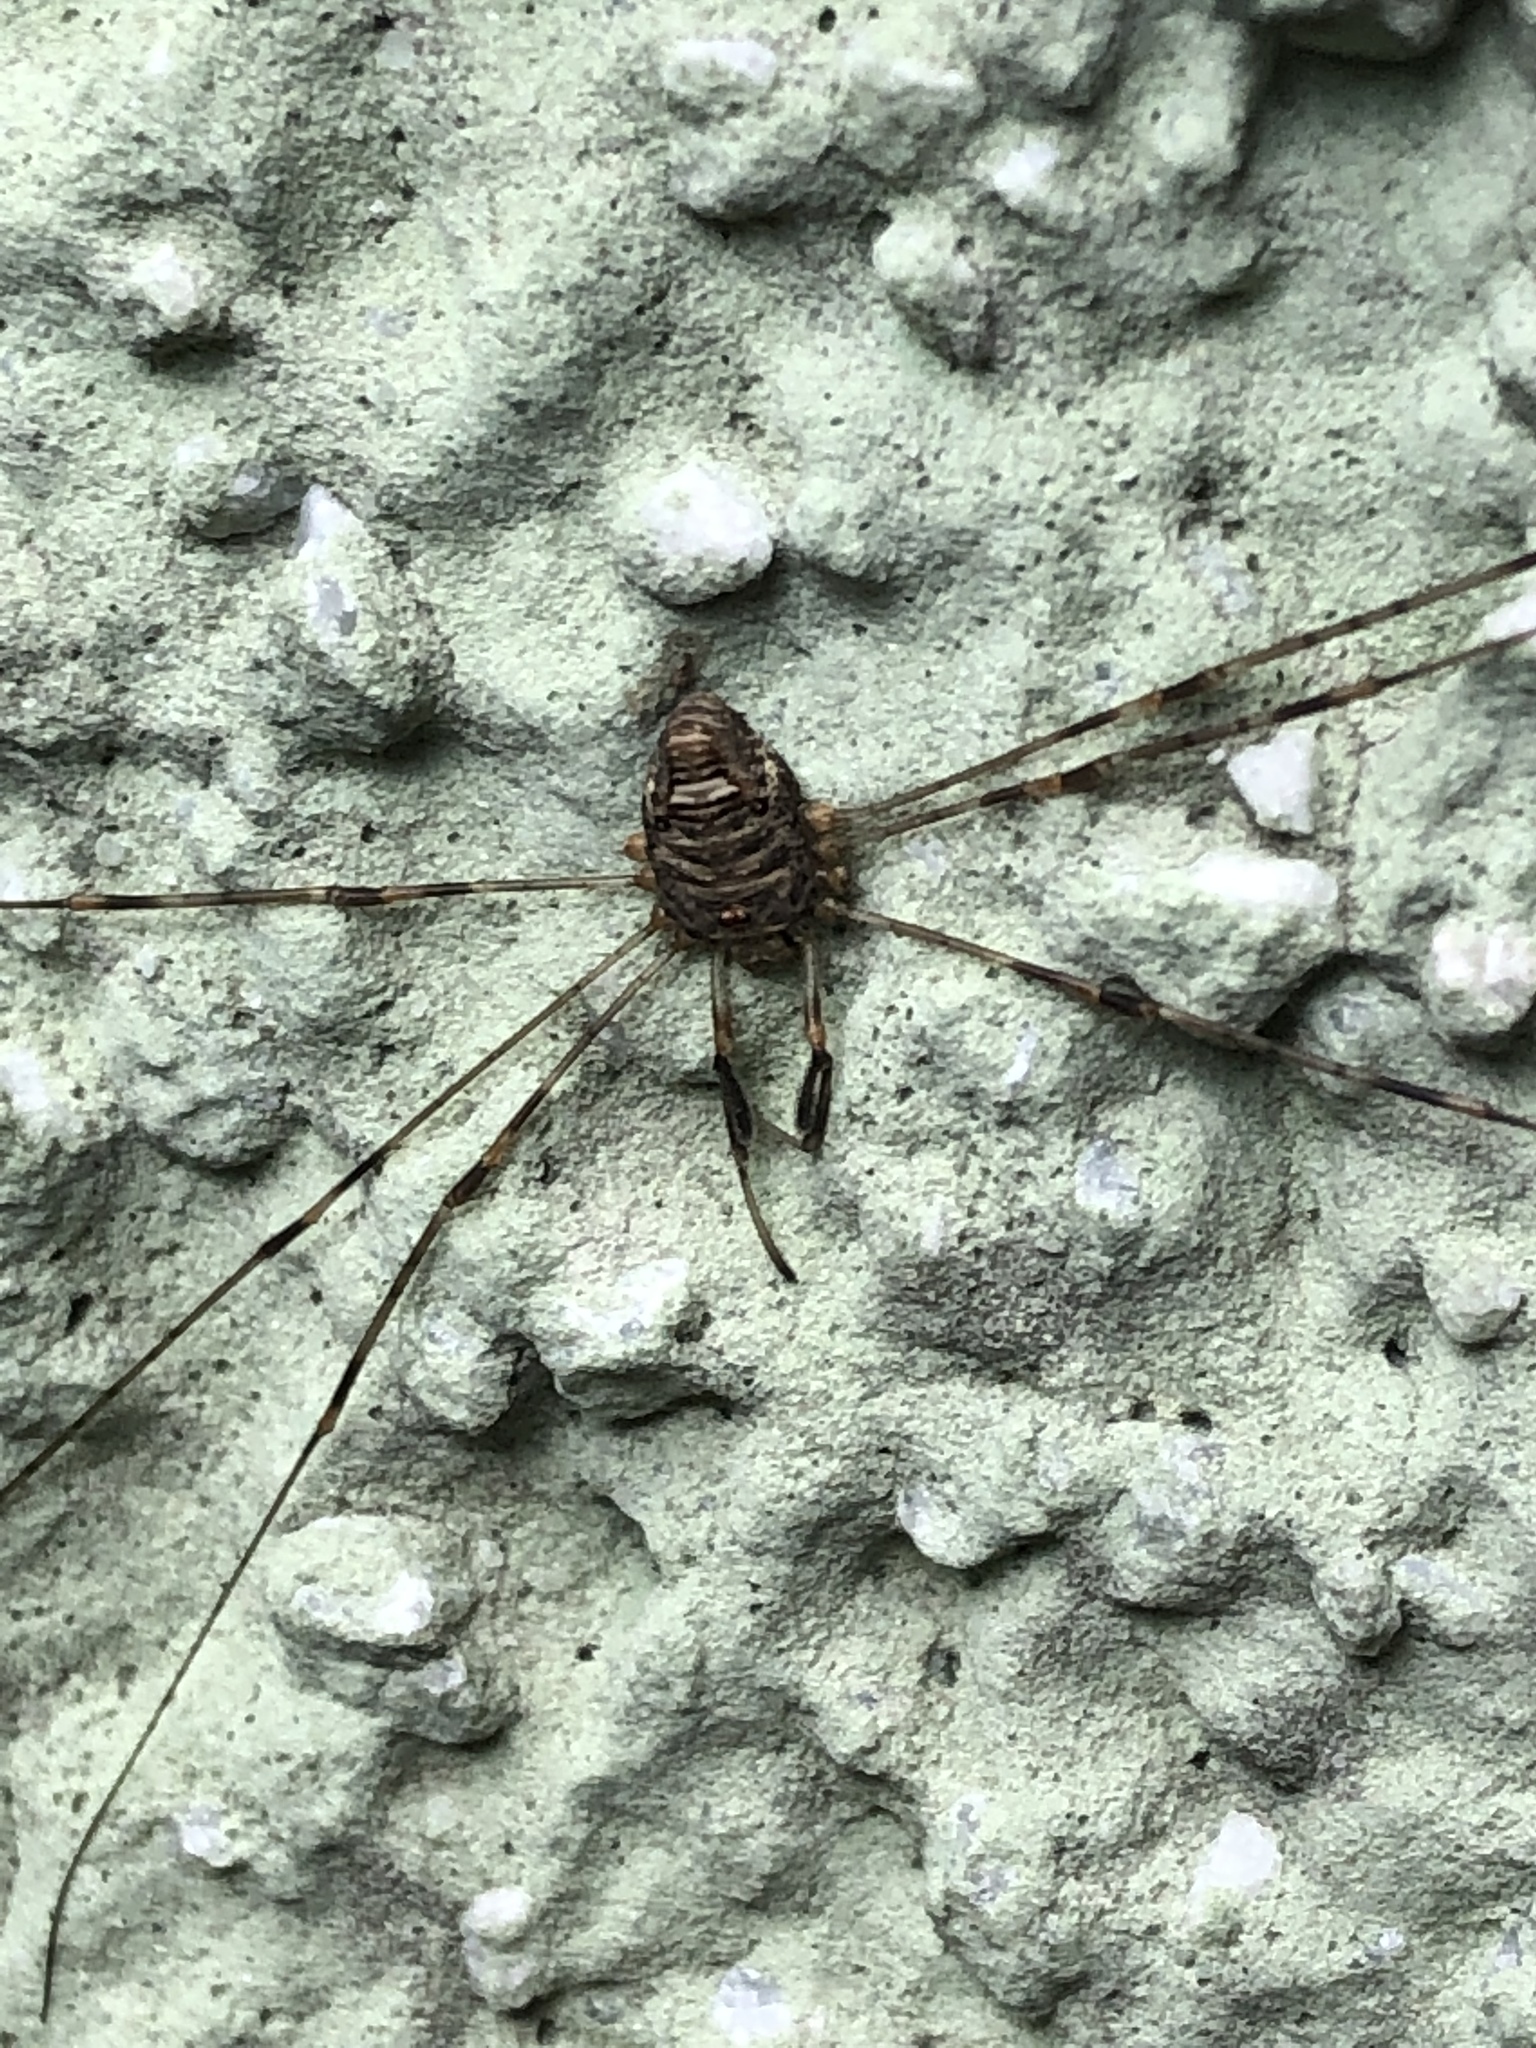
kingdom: Animalia
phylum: Arthropoda
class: Arachnida
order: Opiliones
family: Phalangiidae
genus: Dicranopalpus
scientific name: Dicranopalpus ramosus
